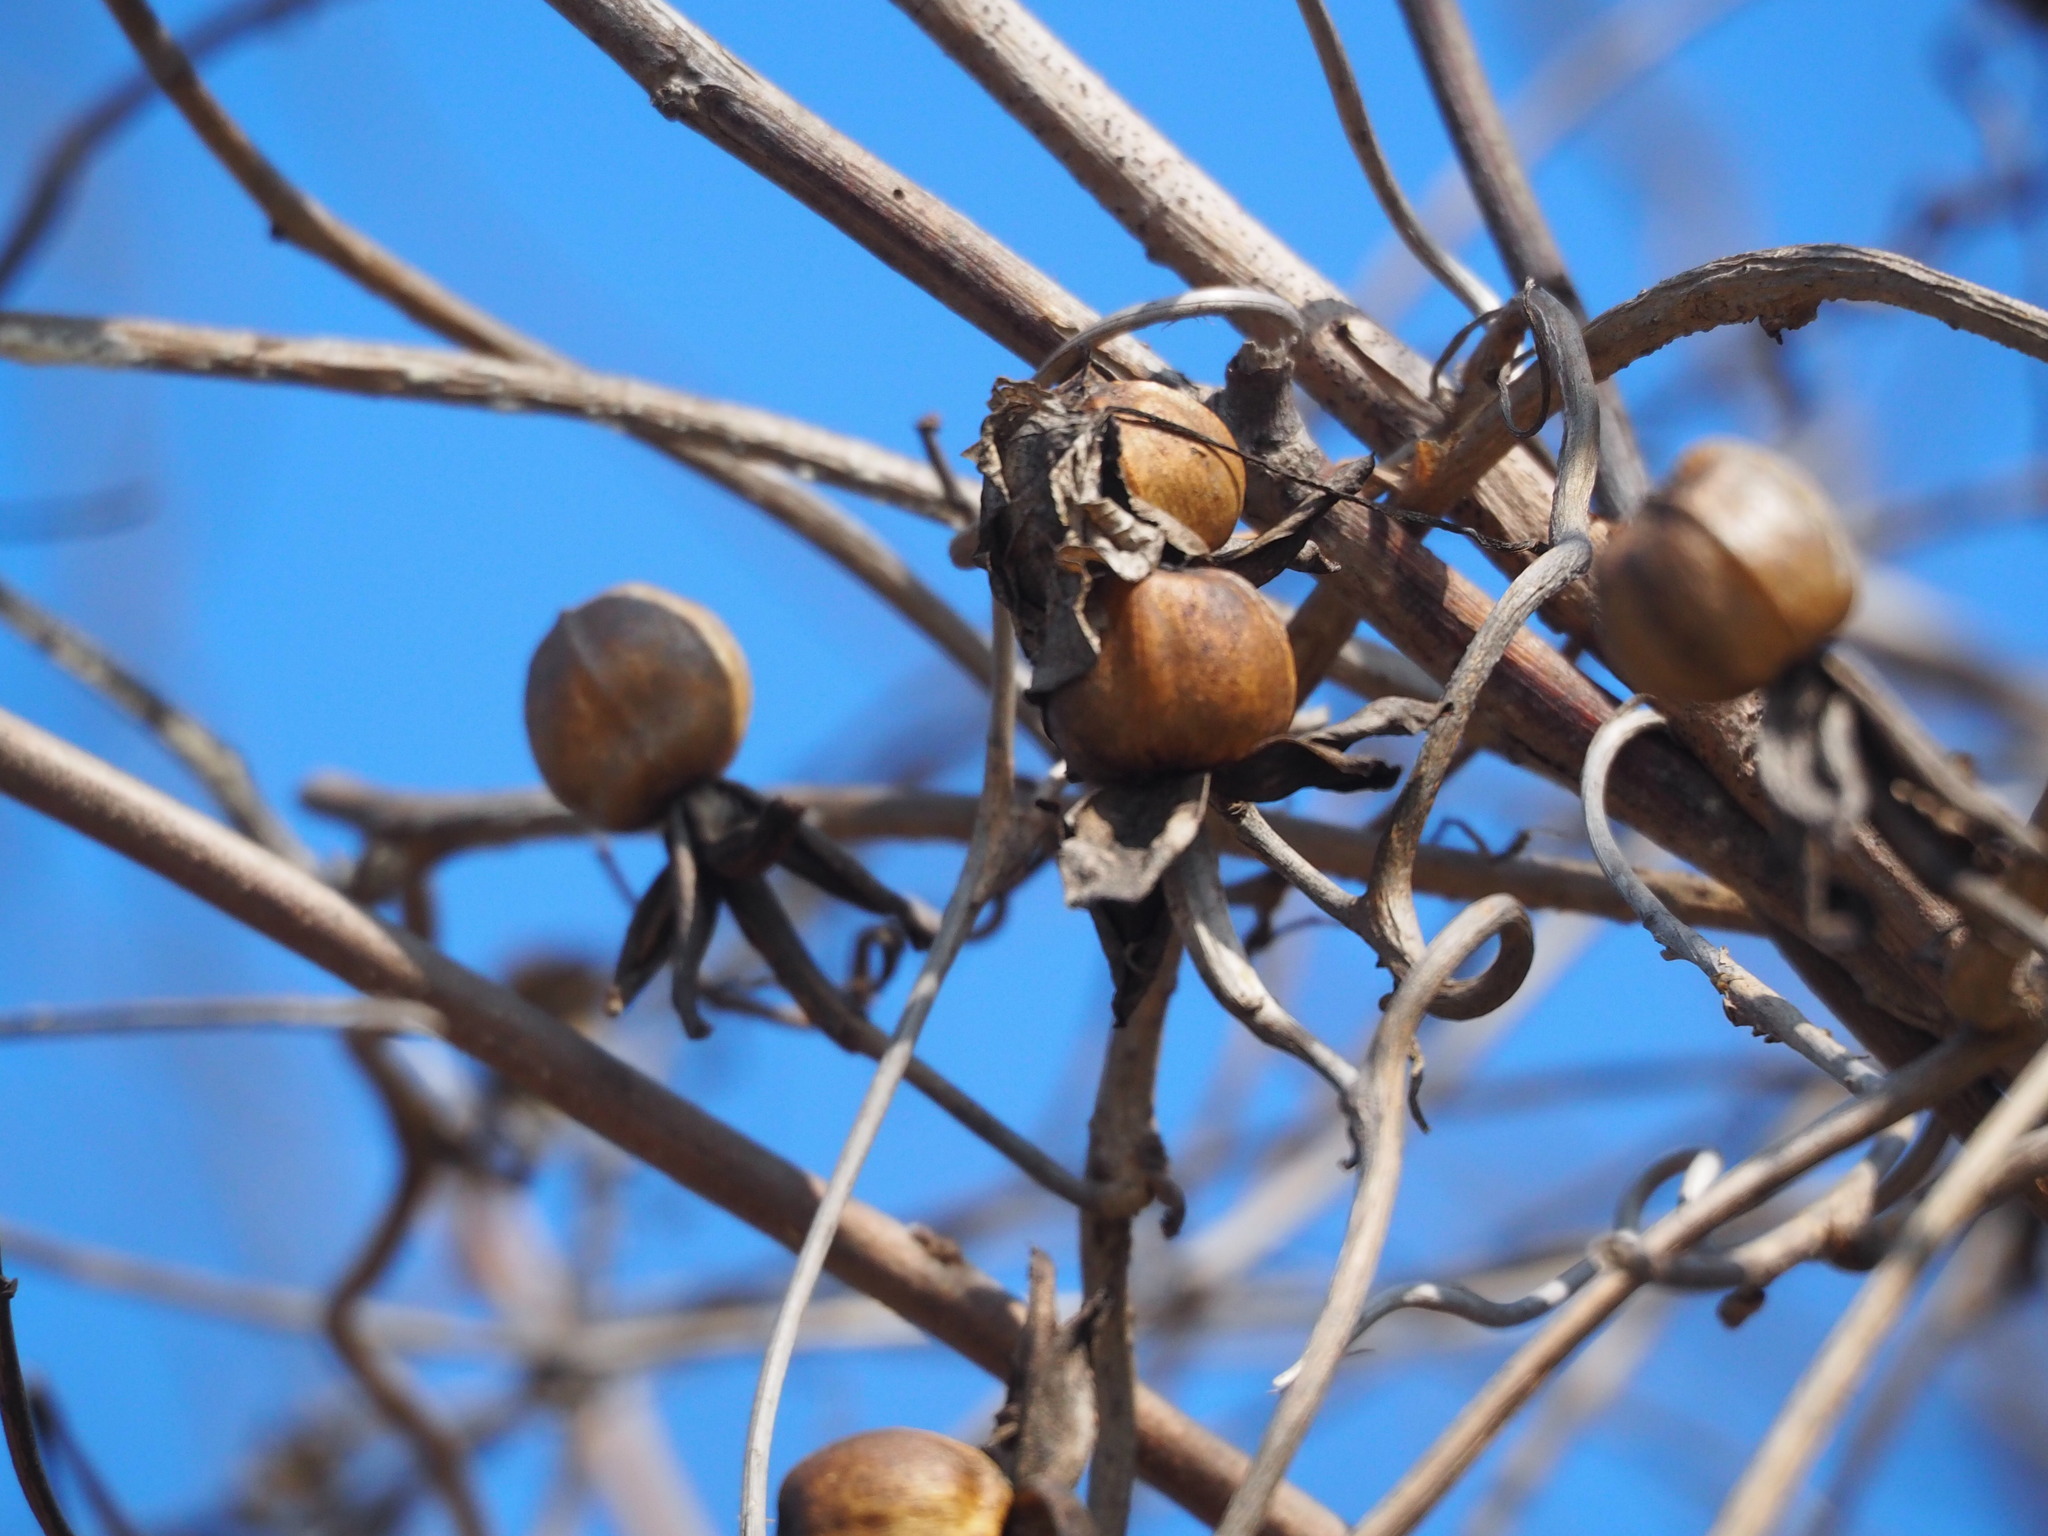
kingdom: Plantae
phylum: Tracheophyta
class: Magnoliopsida
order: Solanales
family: Convolvulaceae
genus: Operculina
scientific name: Operculina turpethum
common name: Transparent wood-rose
